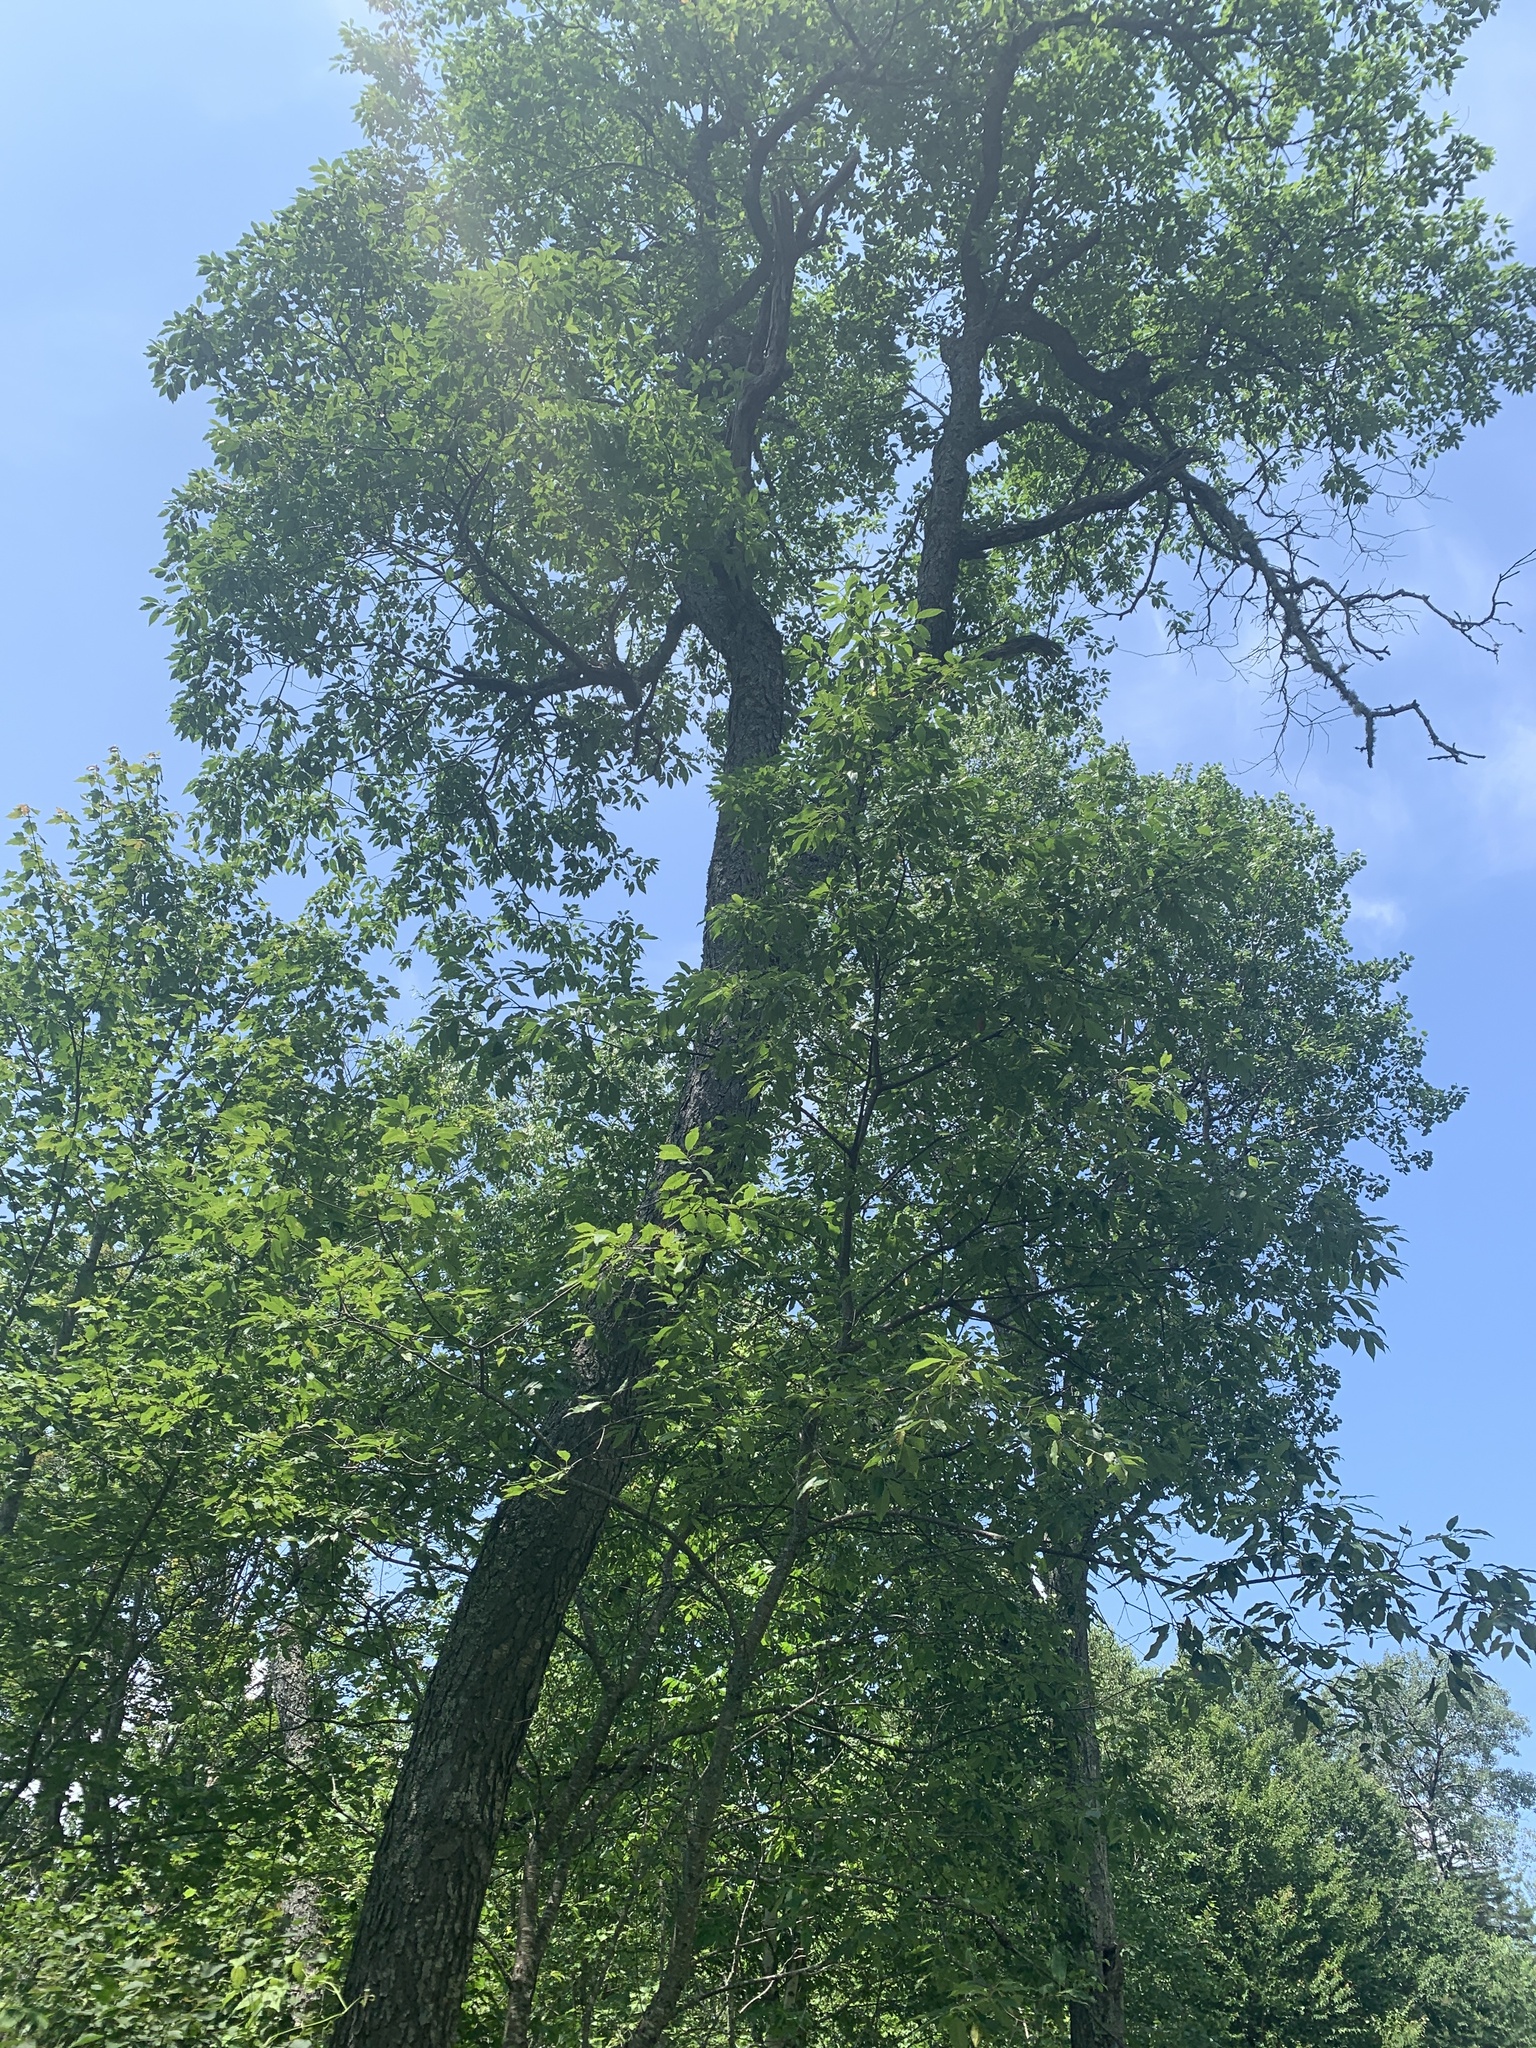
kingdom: Plantae
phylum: Tracheophyta
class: Magnoliopsida
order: Rosales
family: Rosaceae
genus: Prunus
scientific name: Prunus serotina
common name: Black cherry
